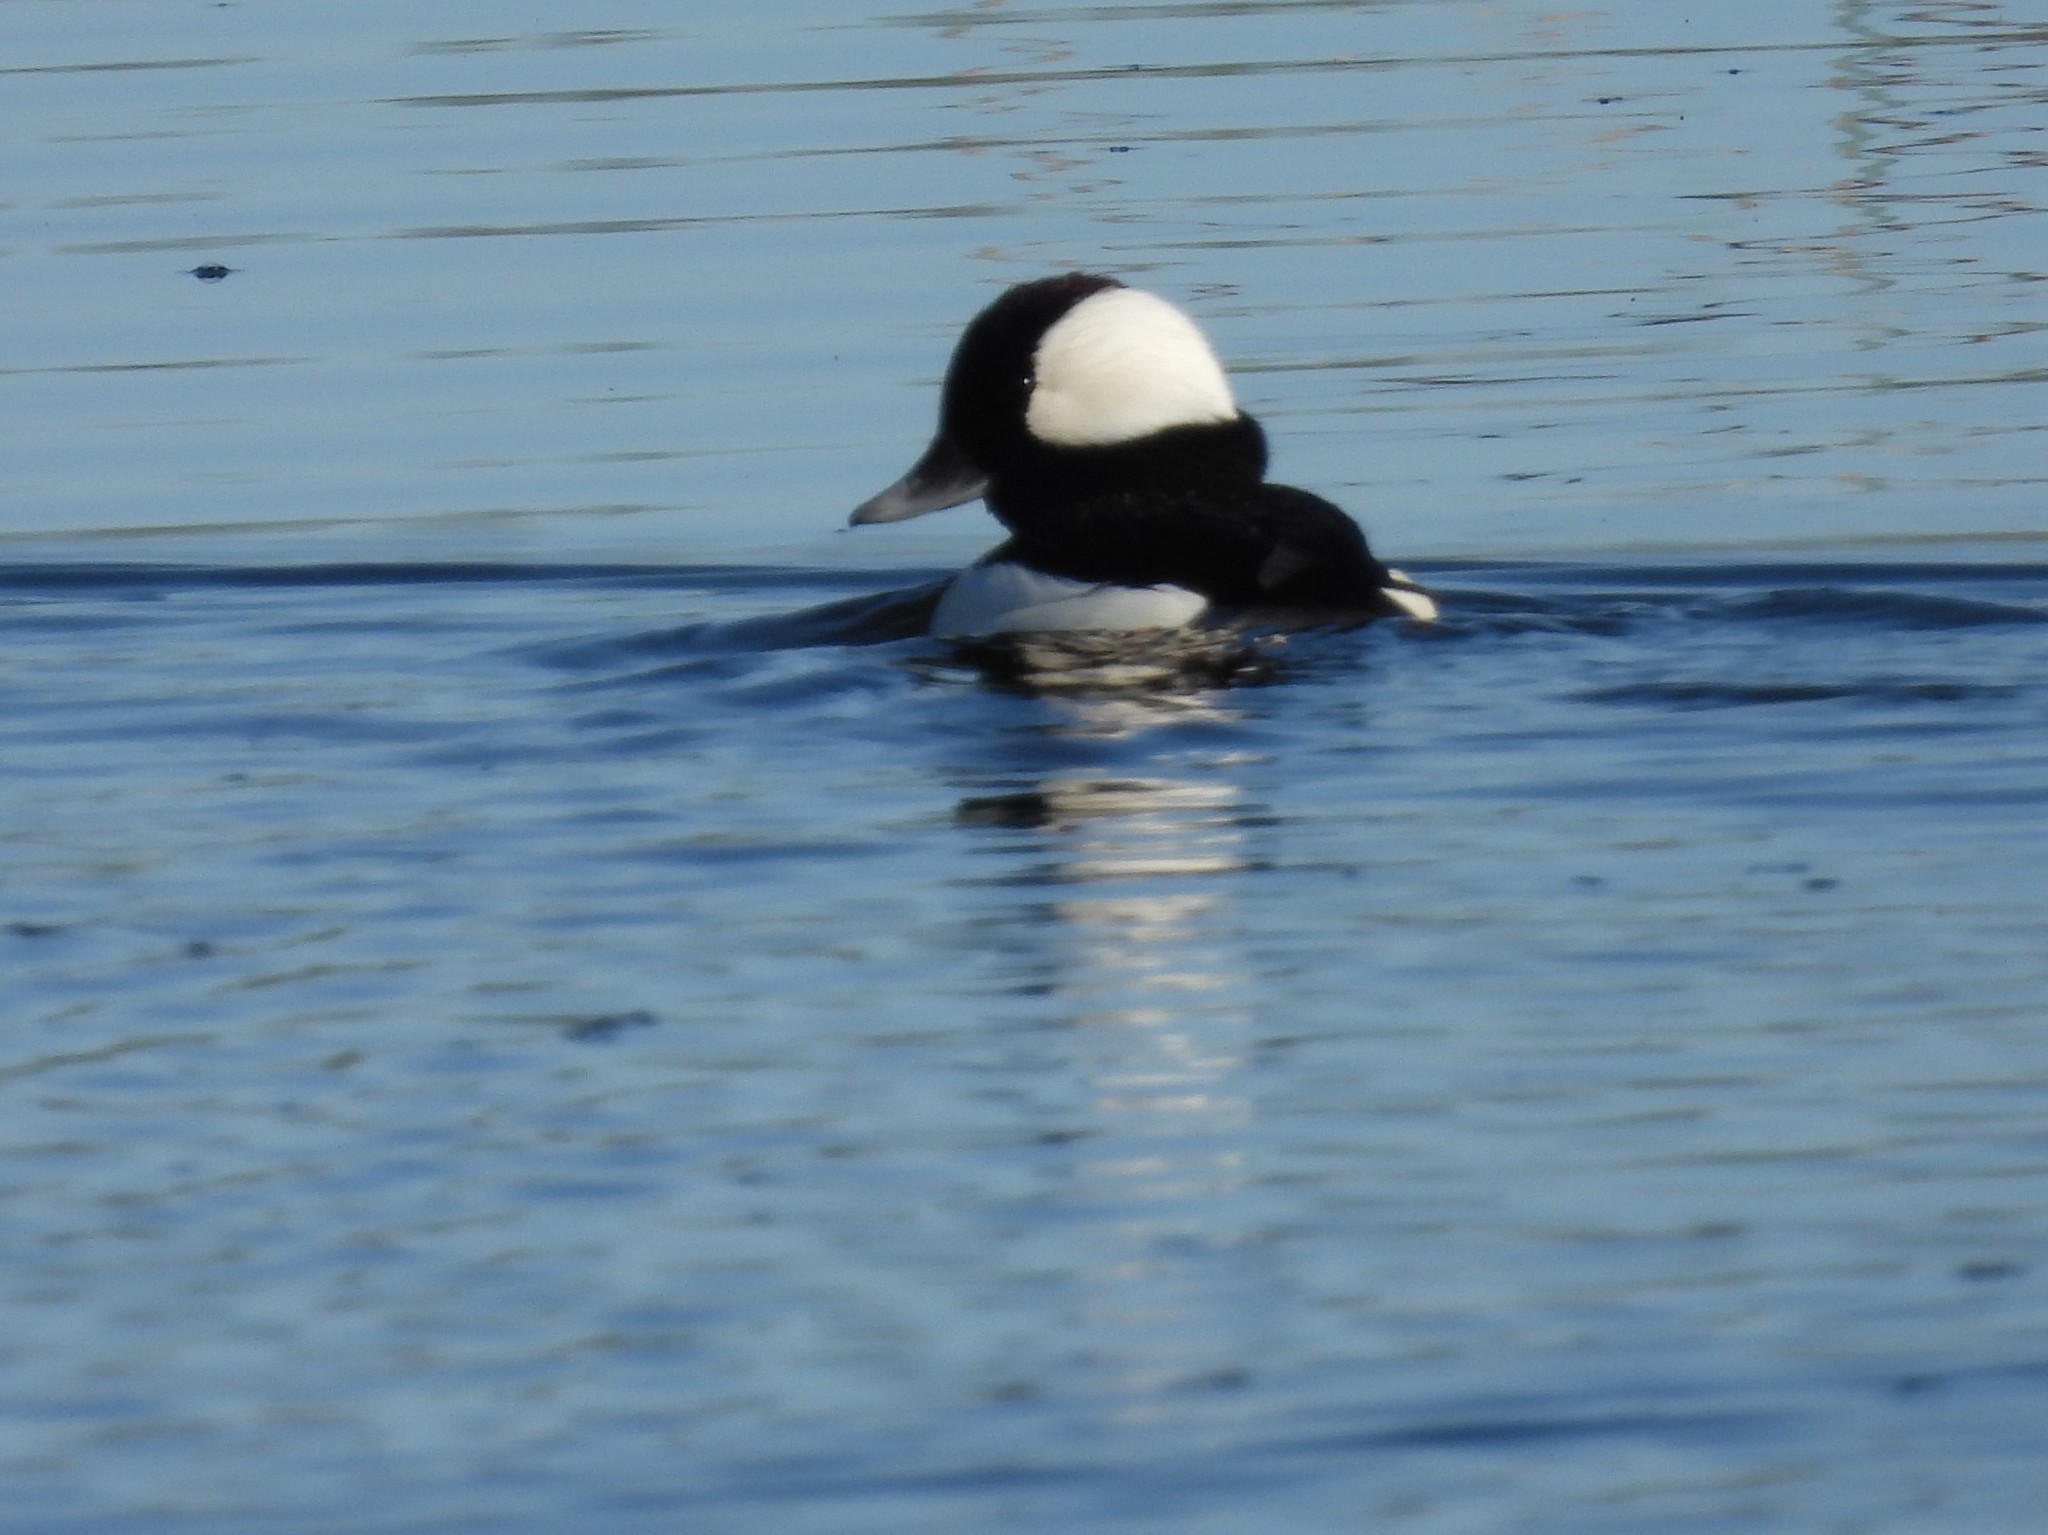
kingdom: Animalia
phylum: Chordata
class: Aves
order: Anseriformes
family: Anatidae
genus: Bucephala
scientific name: Bucephala albeola
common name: Bufflehead
